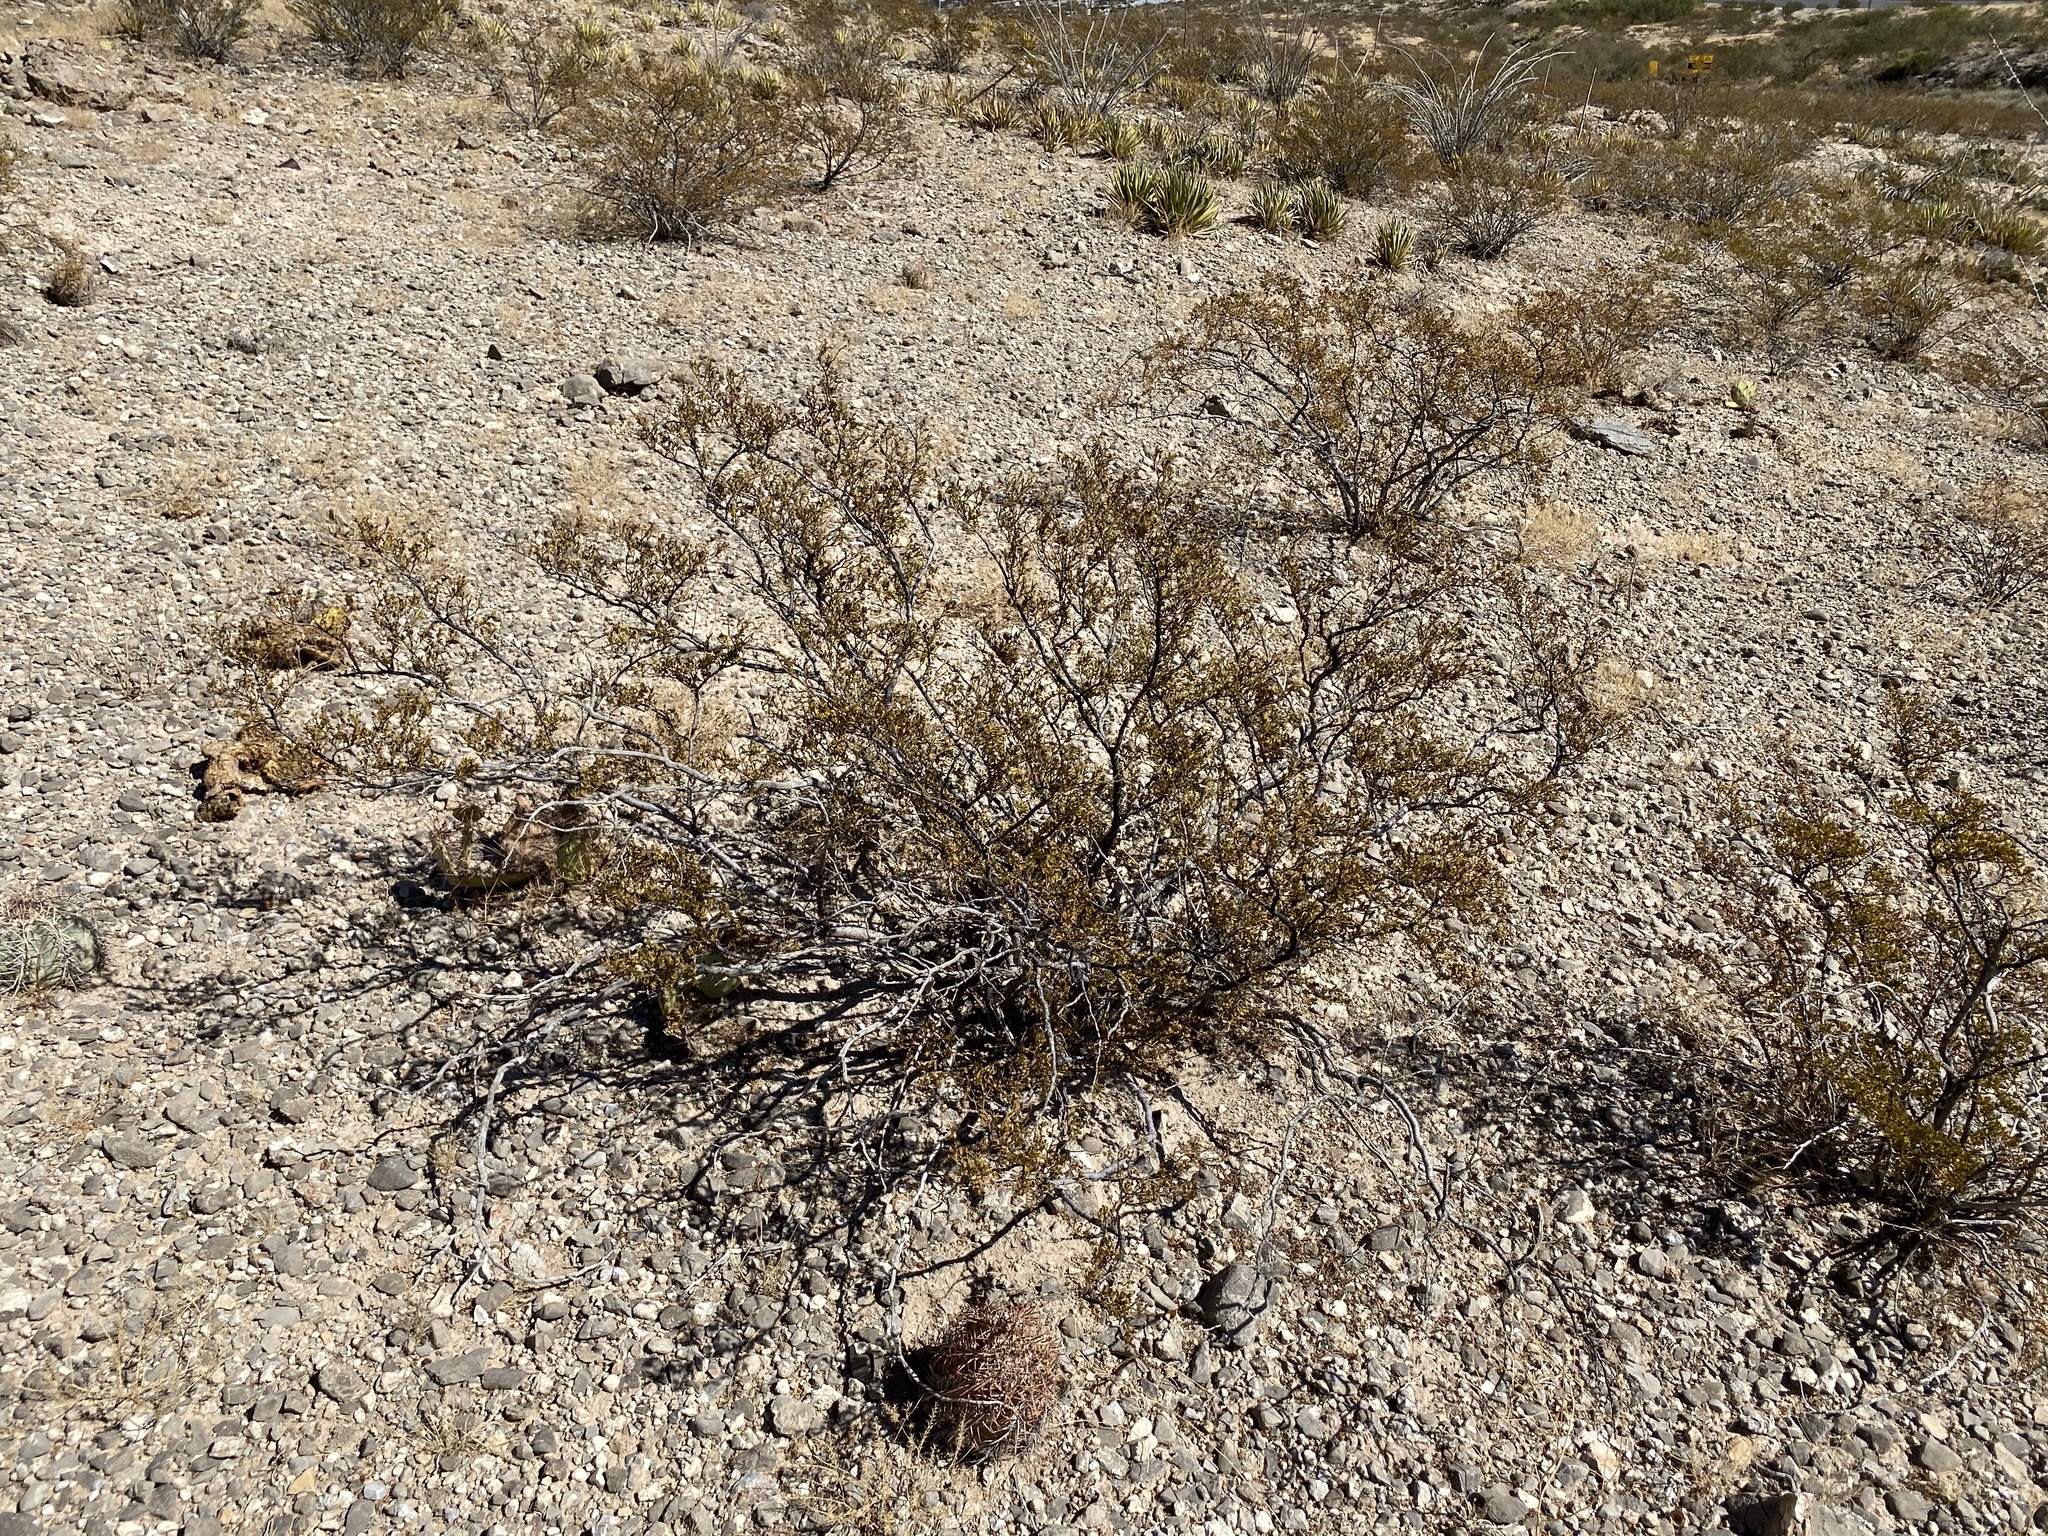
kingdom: Plantae
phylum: Tracheophyta
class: Magnoliopsida
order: Zygophyllales
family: Zygophyllaceae
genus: Larrea
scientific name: Larrea tridentata
